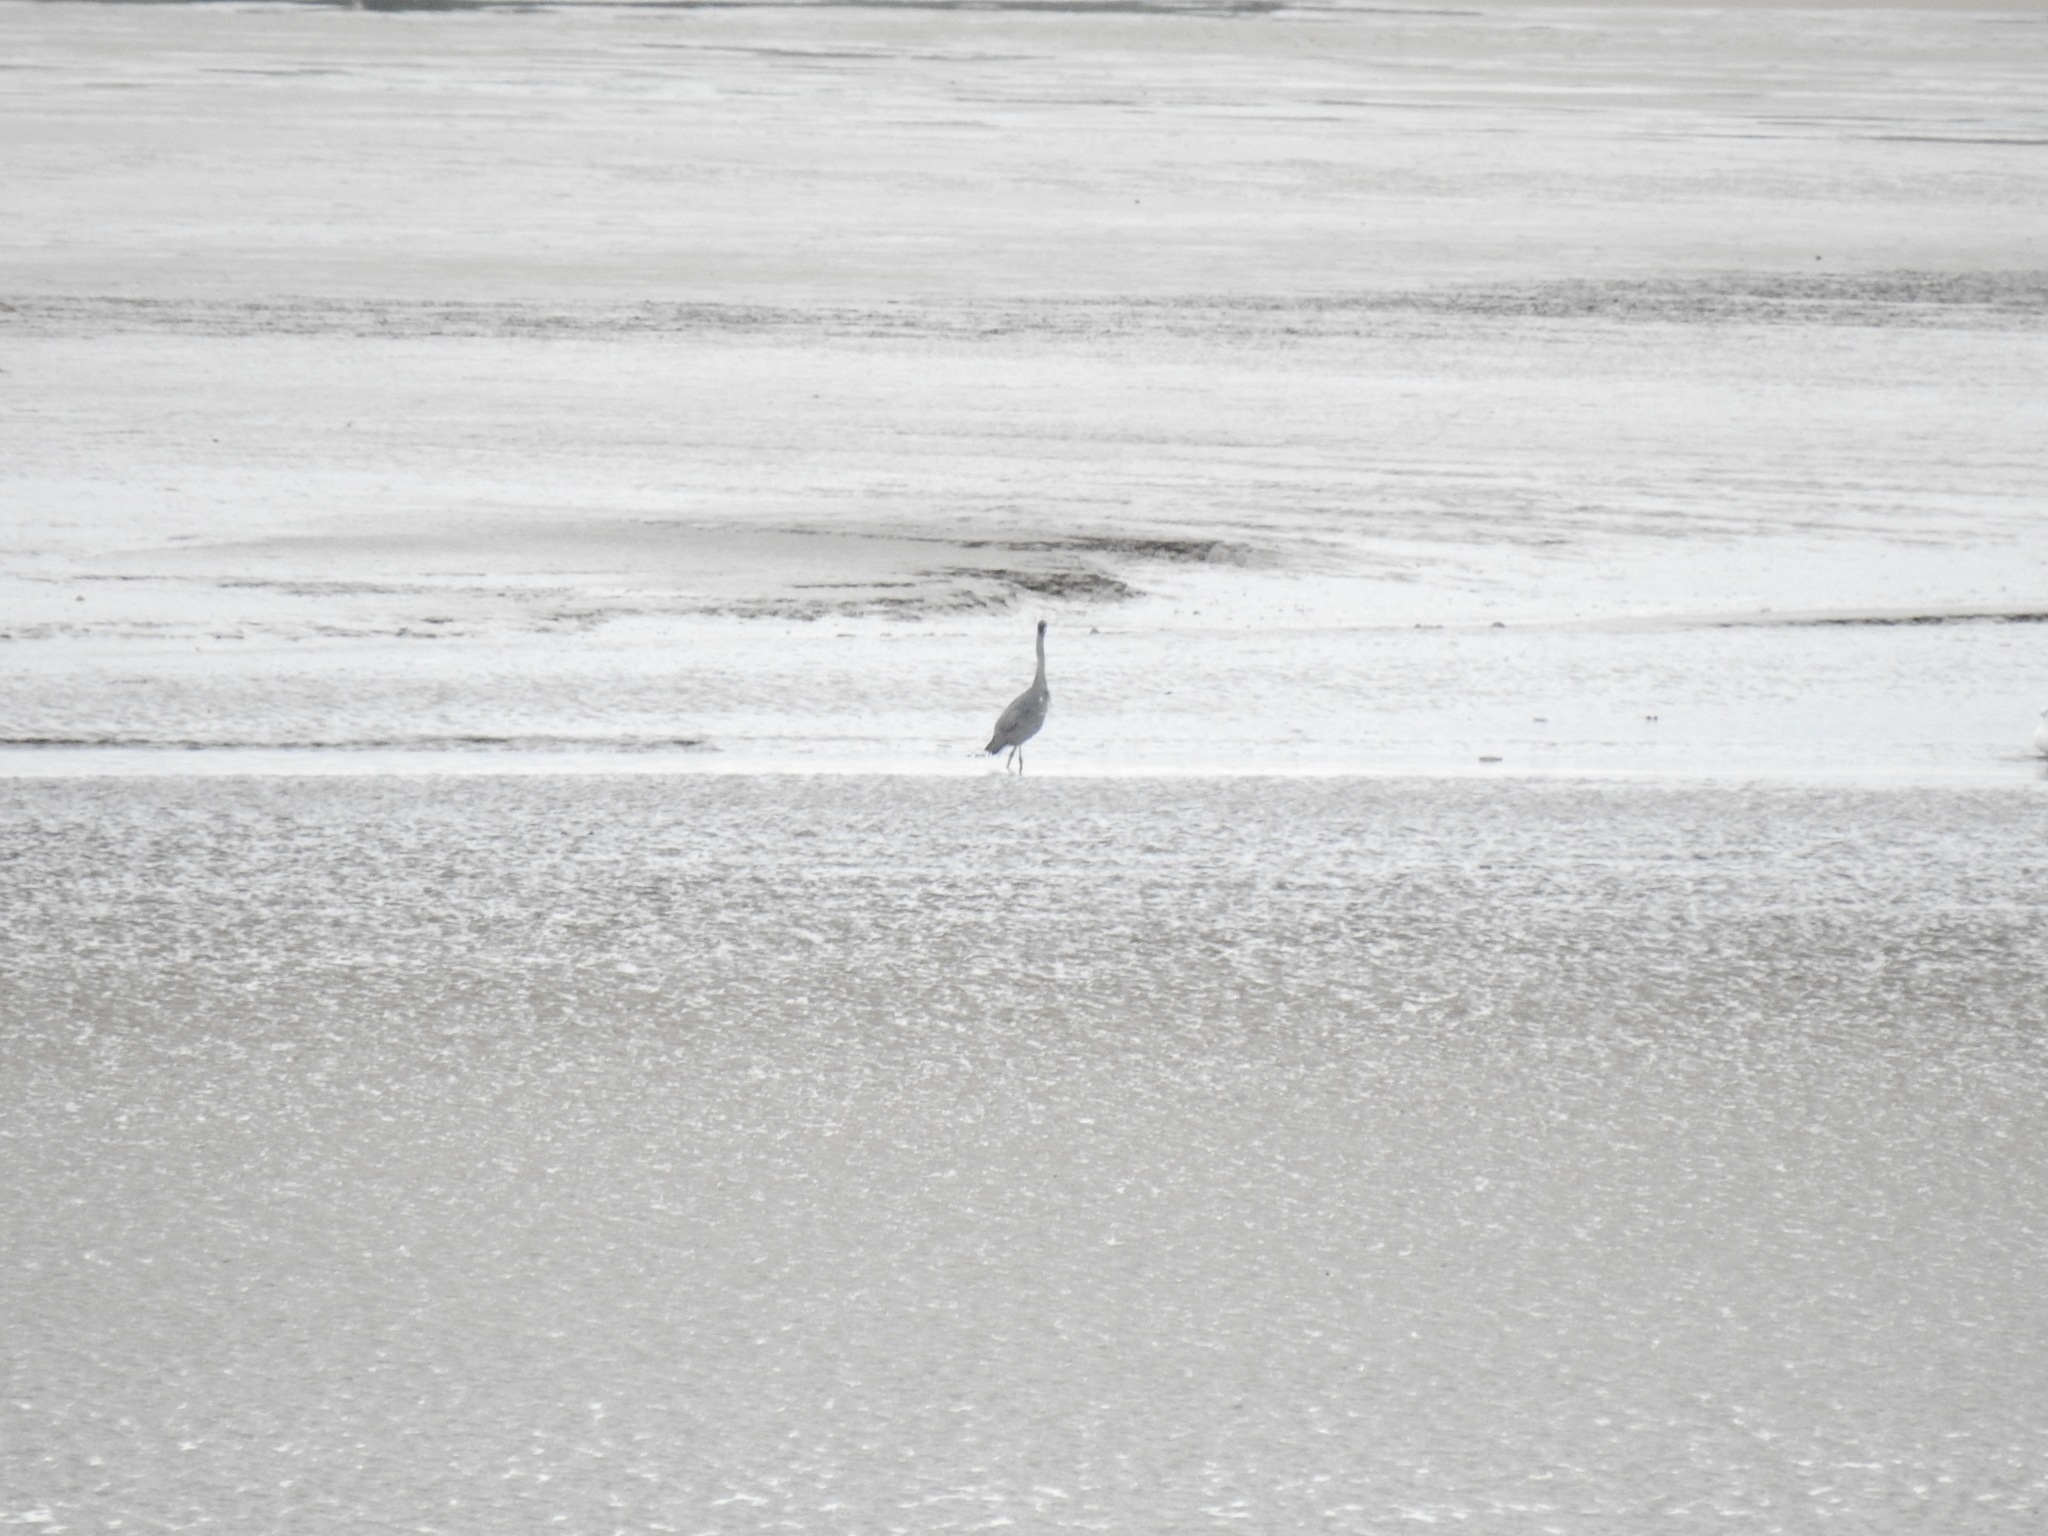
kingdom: Animalia
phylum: Chordata
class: Aves
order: Pelecaniformes
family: Ardeidae
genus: Ardea
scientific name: Ardea cinerea
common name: Grey heron
